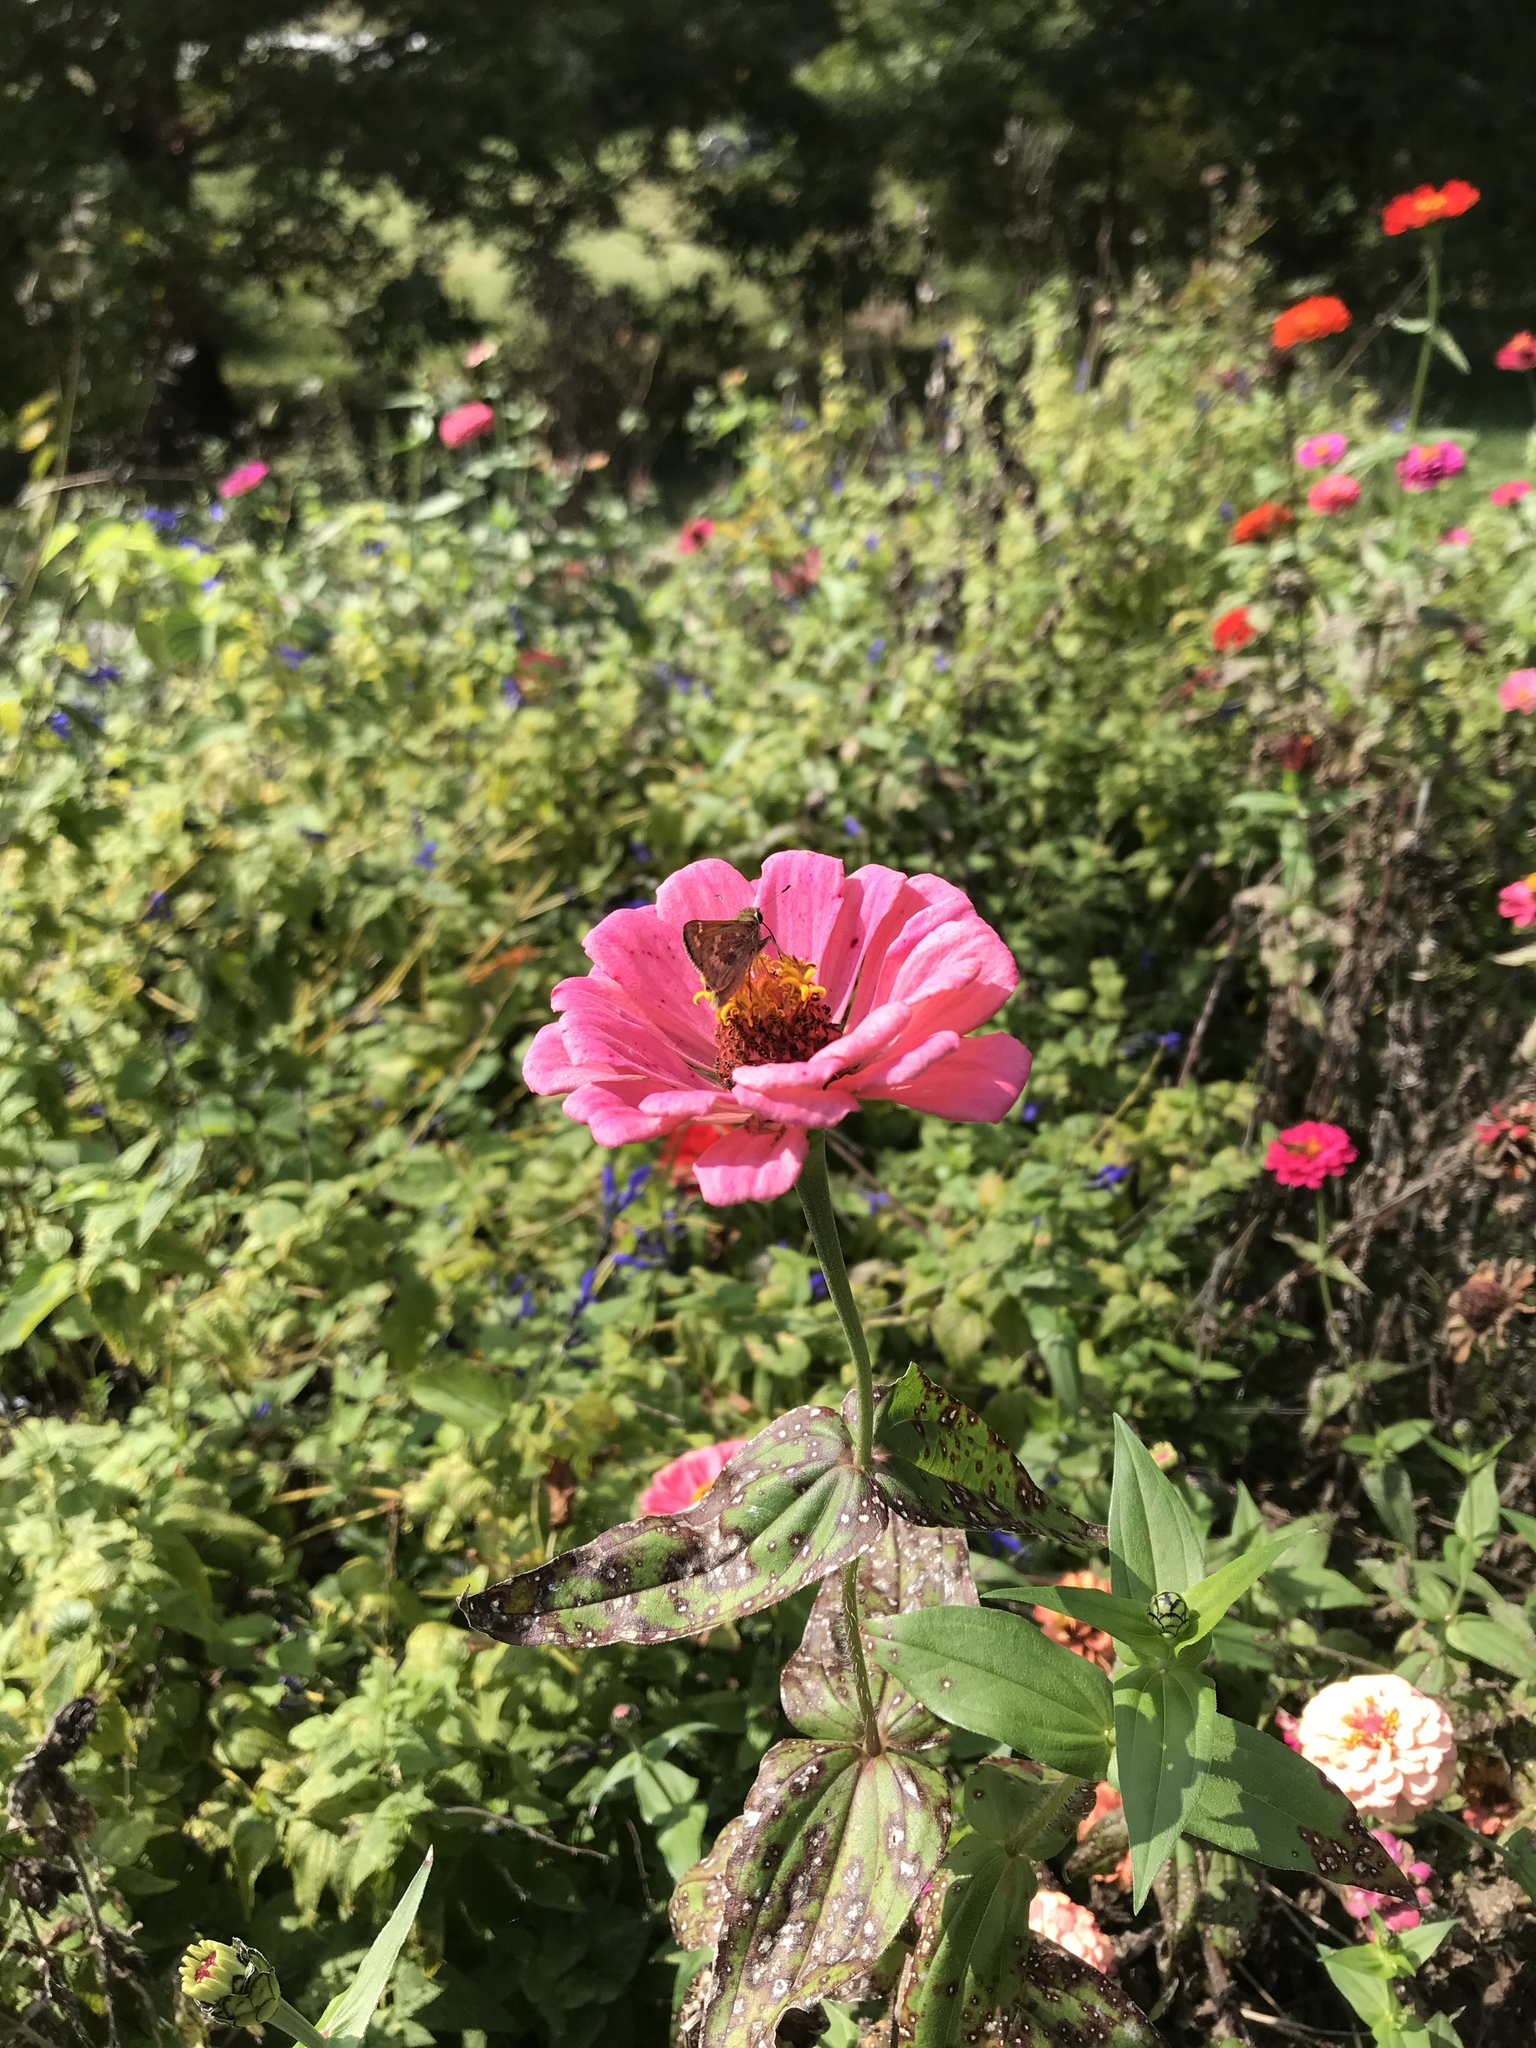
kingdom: Animalia
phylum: Arthropoda
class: Insecta
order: Lepidoptera
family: Hesperiidae
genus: Atalopedes
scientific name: Atalopedes
